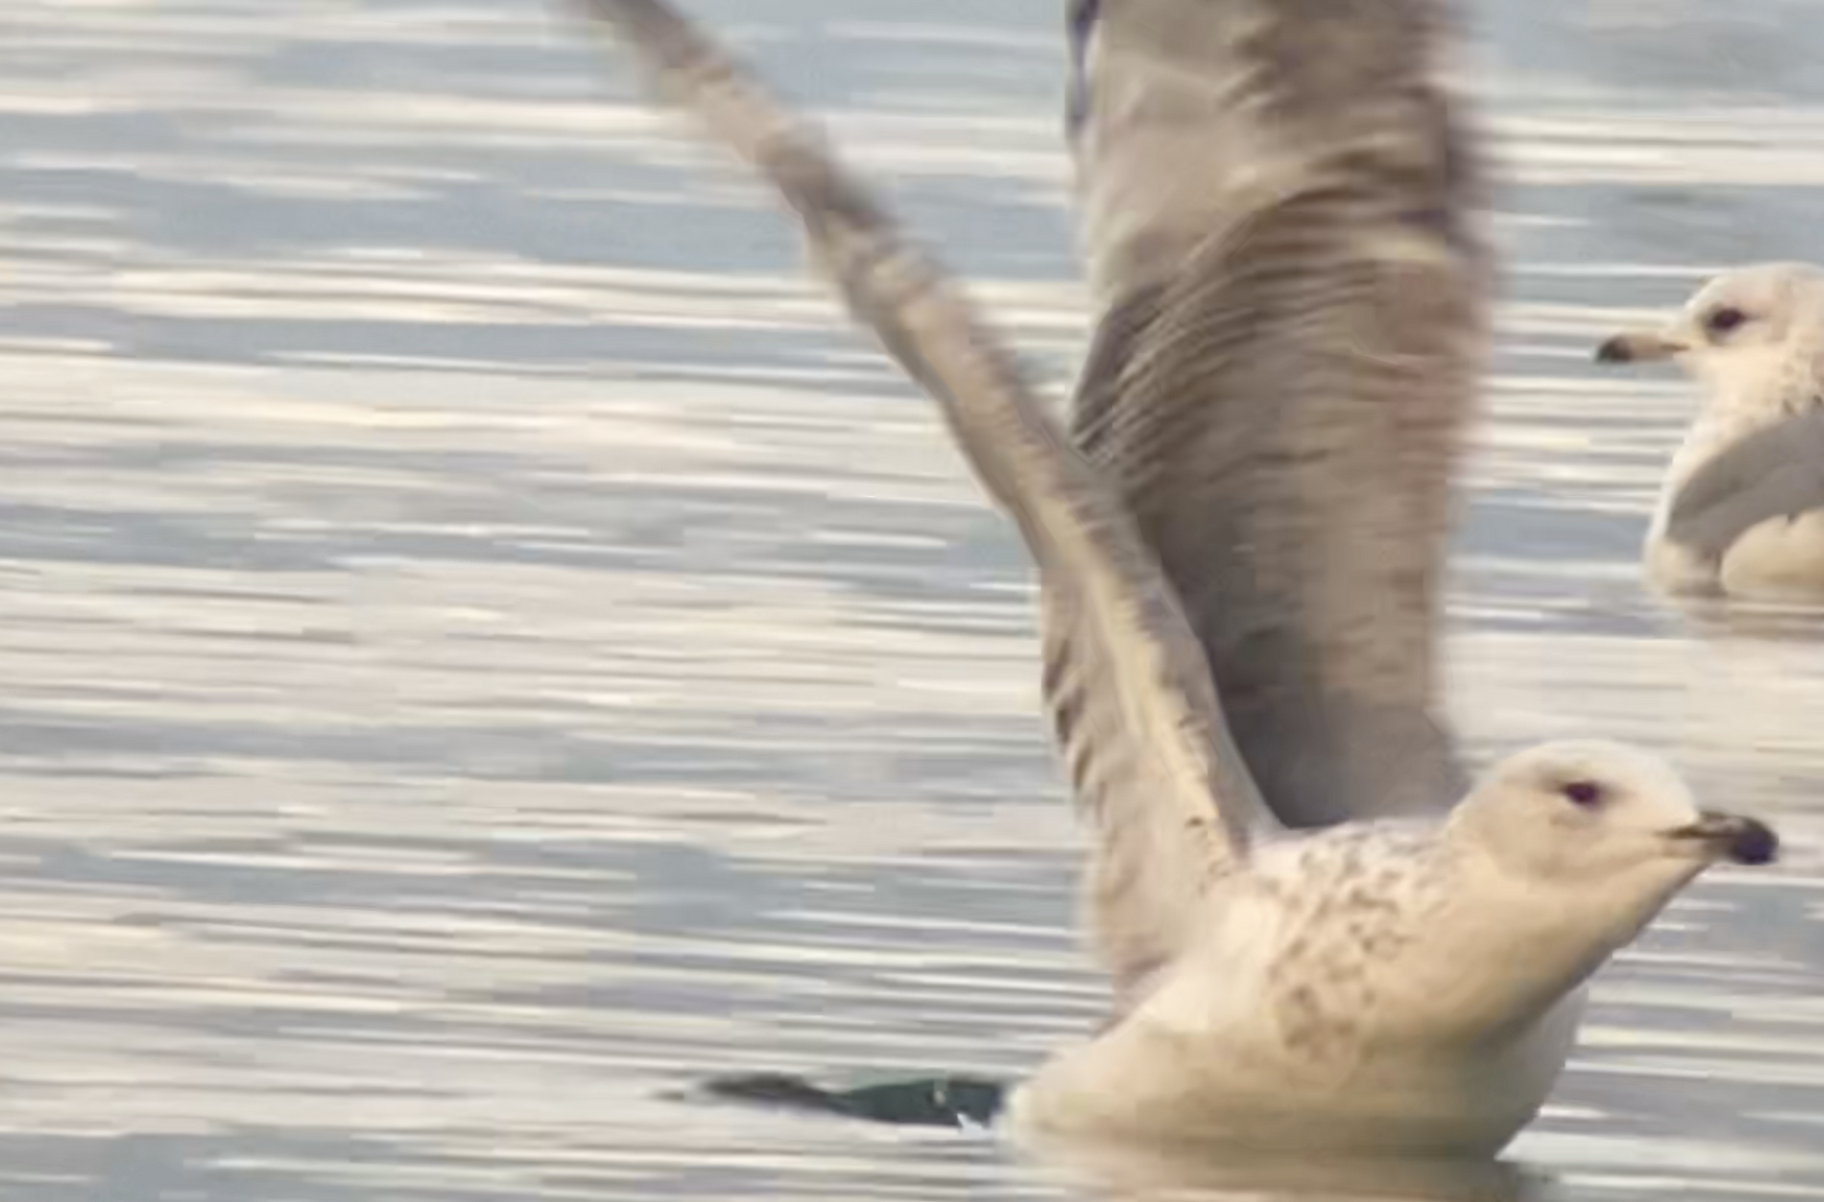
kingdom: Animalia
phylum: Chordata
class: Aves
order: Charadriiformes
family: Laridae
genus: Larus
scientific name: Larus michahellis
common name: Yellow-legged gull
